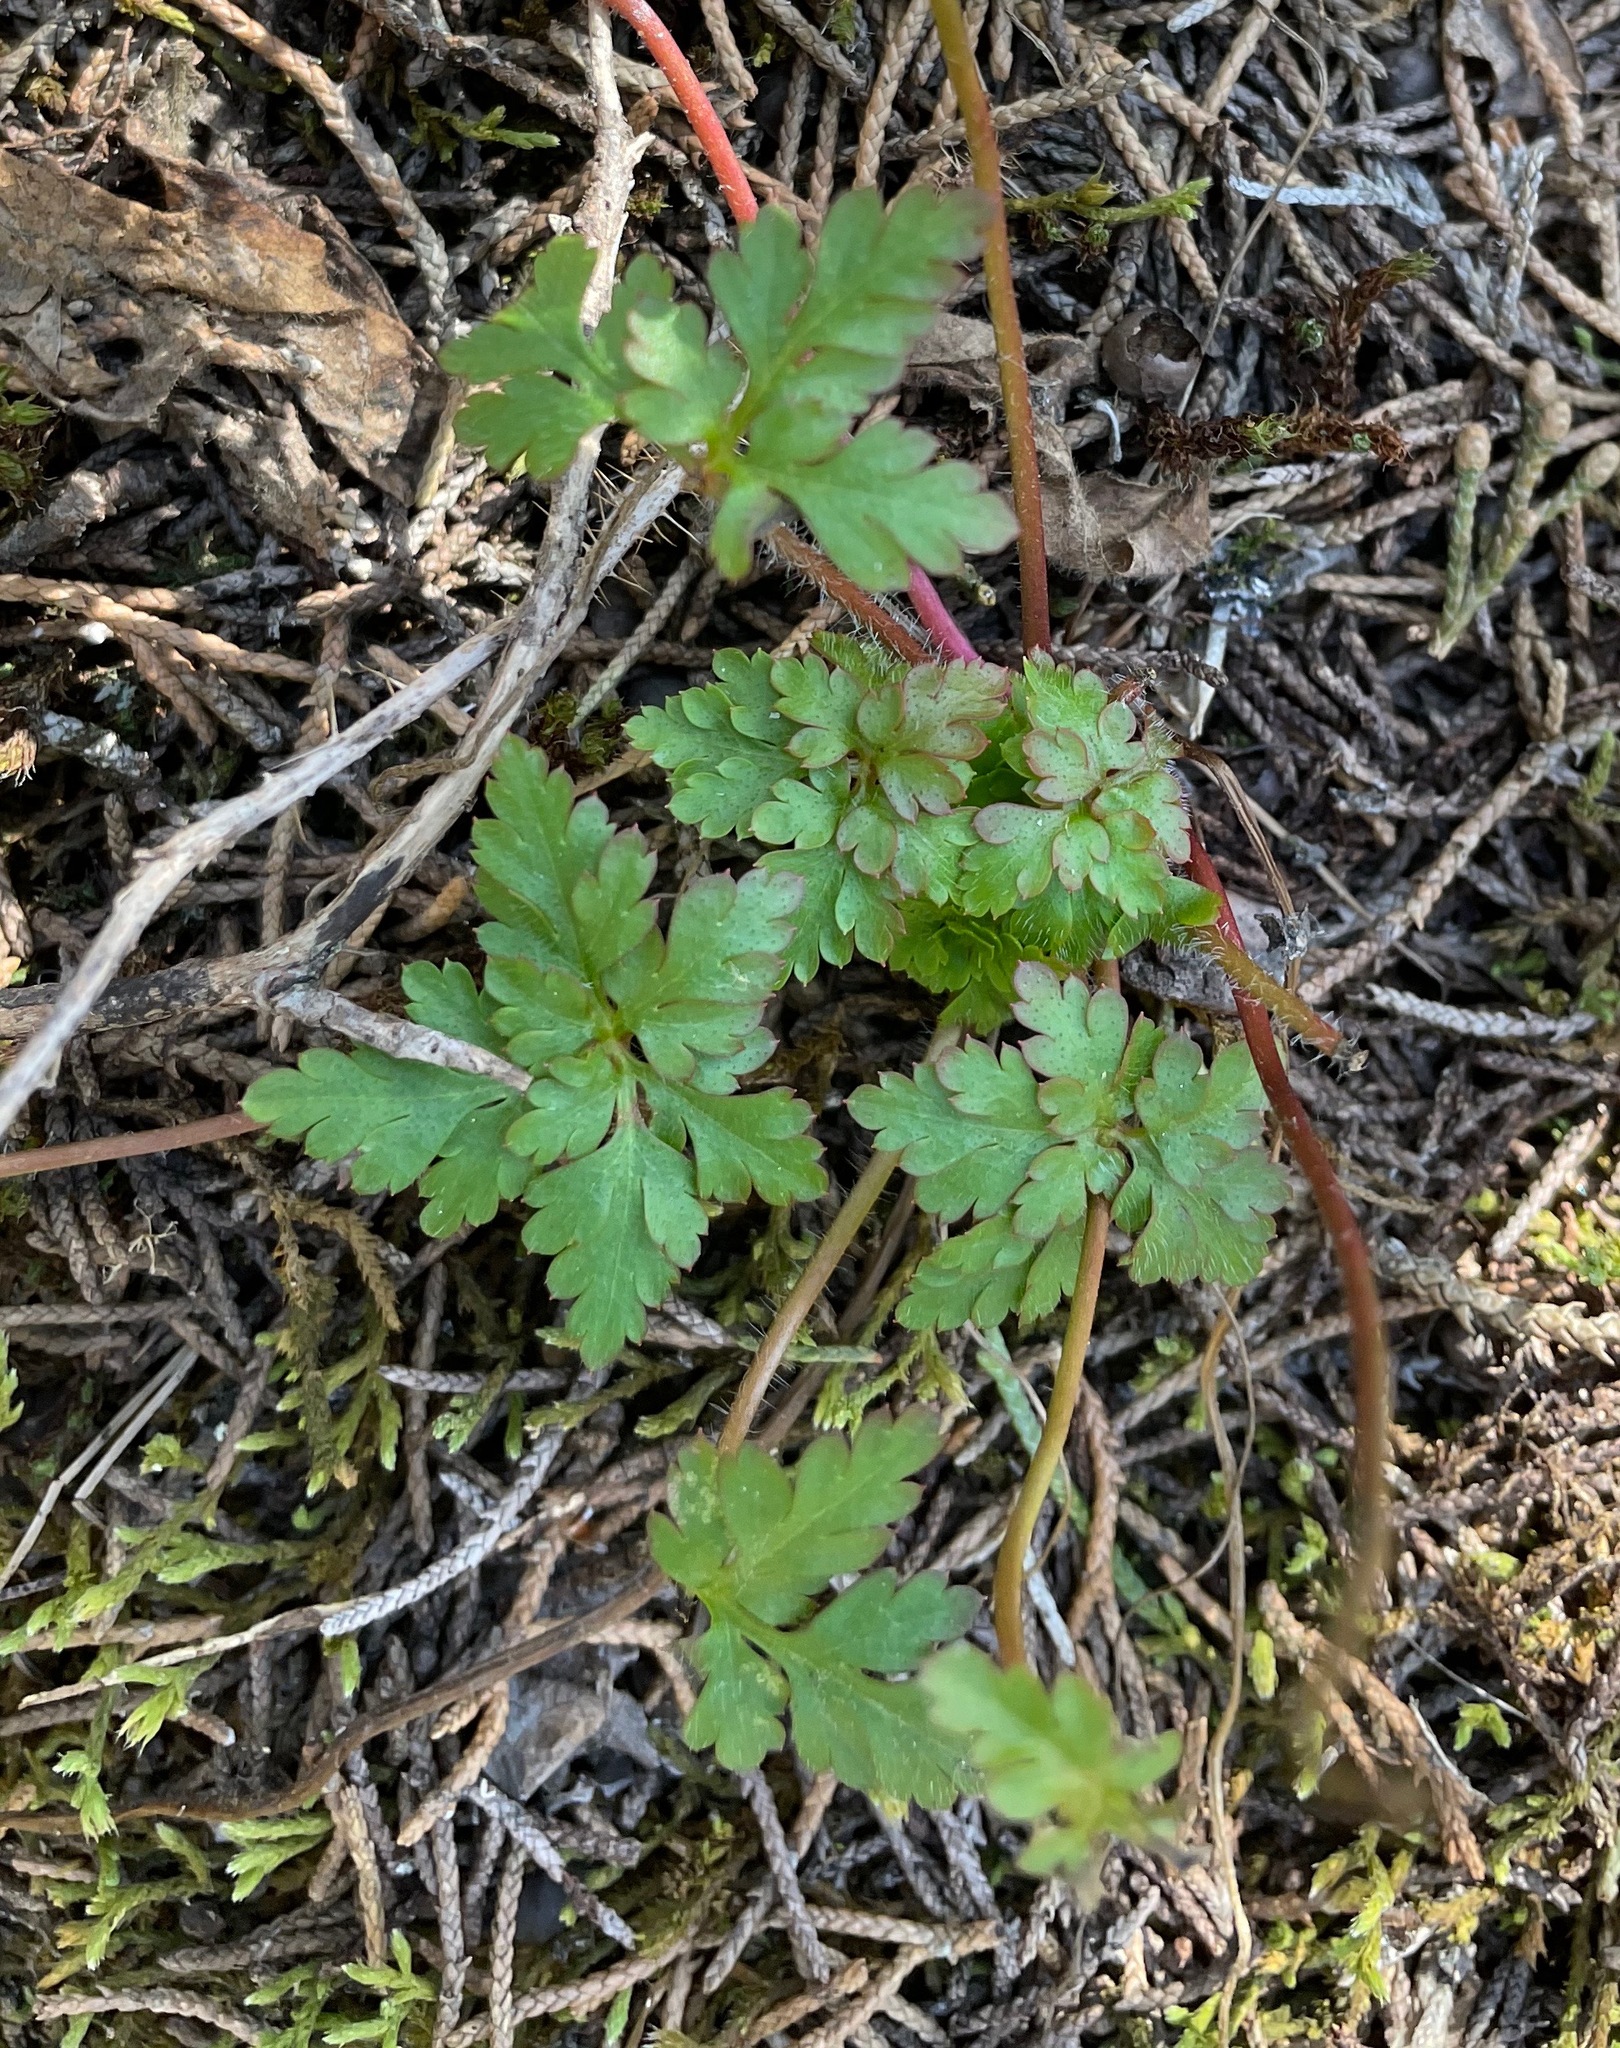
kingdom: Plantae
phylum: Tracheophyta
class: Magnoliopsida
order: Geraniales
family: Geraniaceae
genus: Geranium
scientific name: Geranium robertianum
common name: Herb-robert
